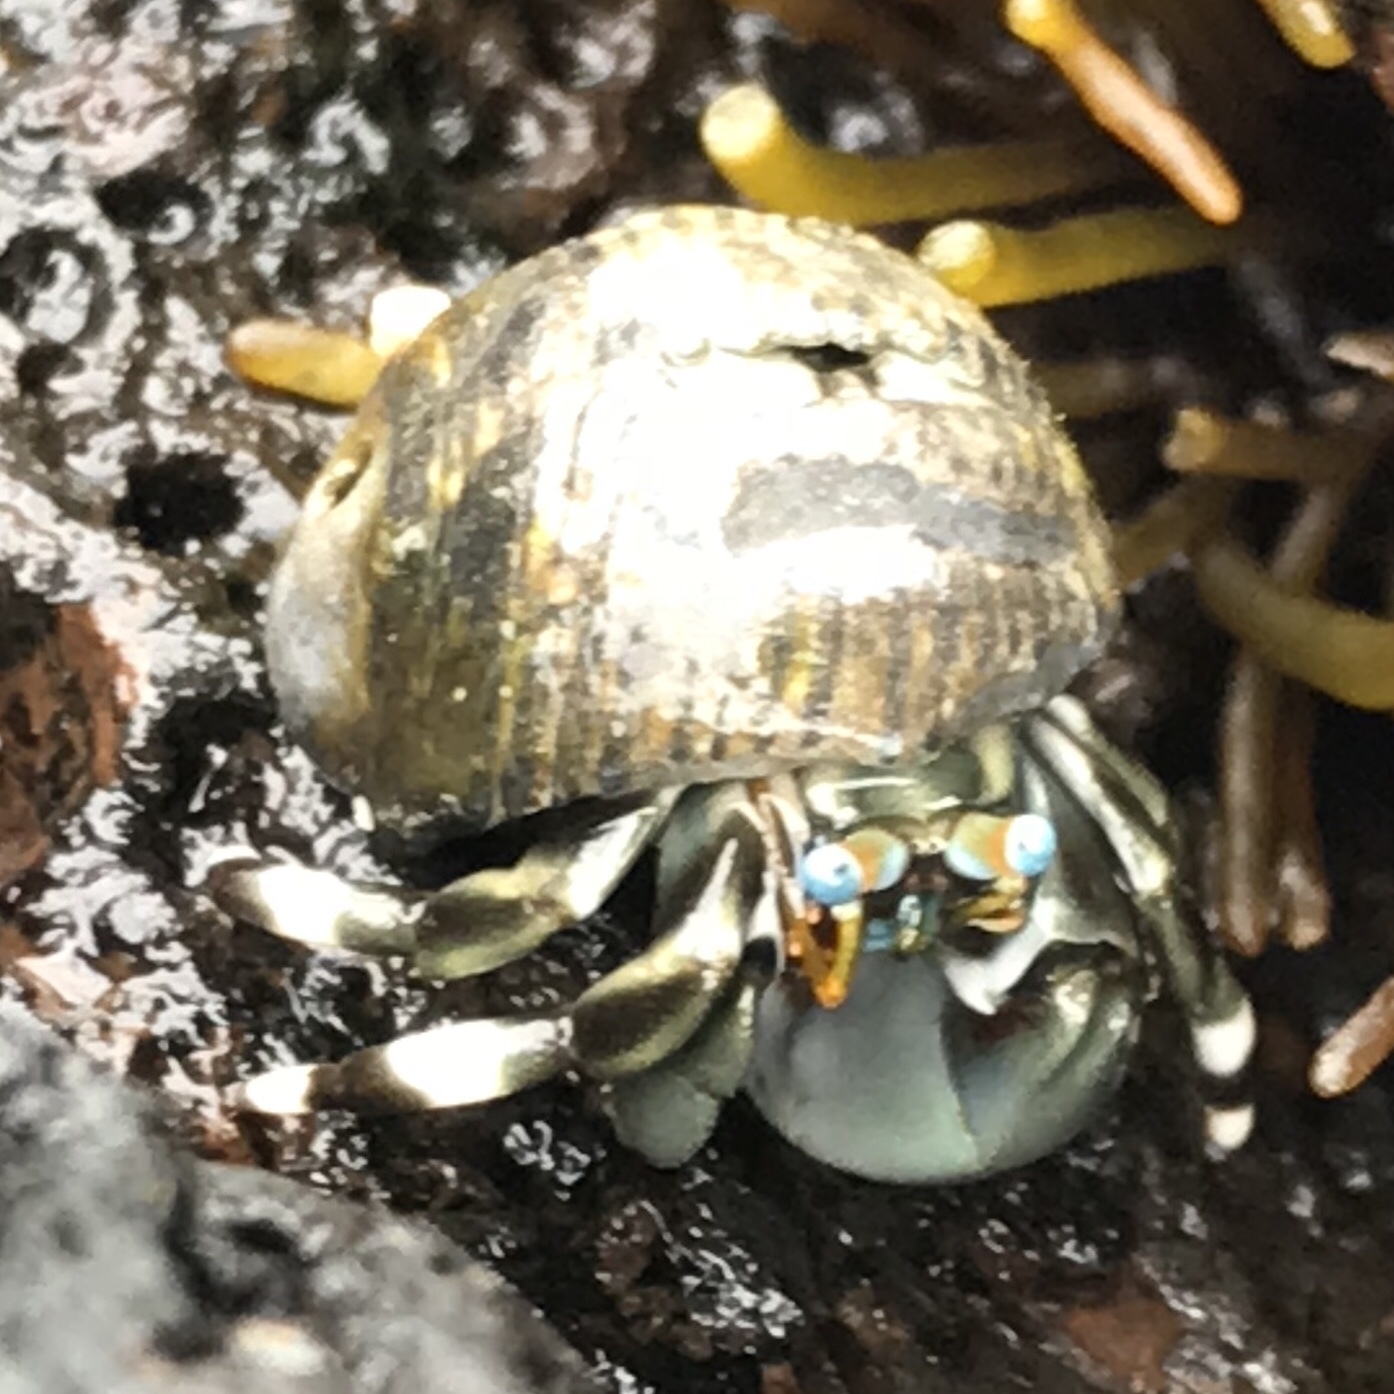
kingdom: Animalia
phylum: Arthropoda
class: Malacostraca
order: Decapoda
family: Diogenidae
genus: Calcinus
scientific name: Calcinus seurati
